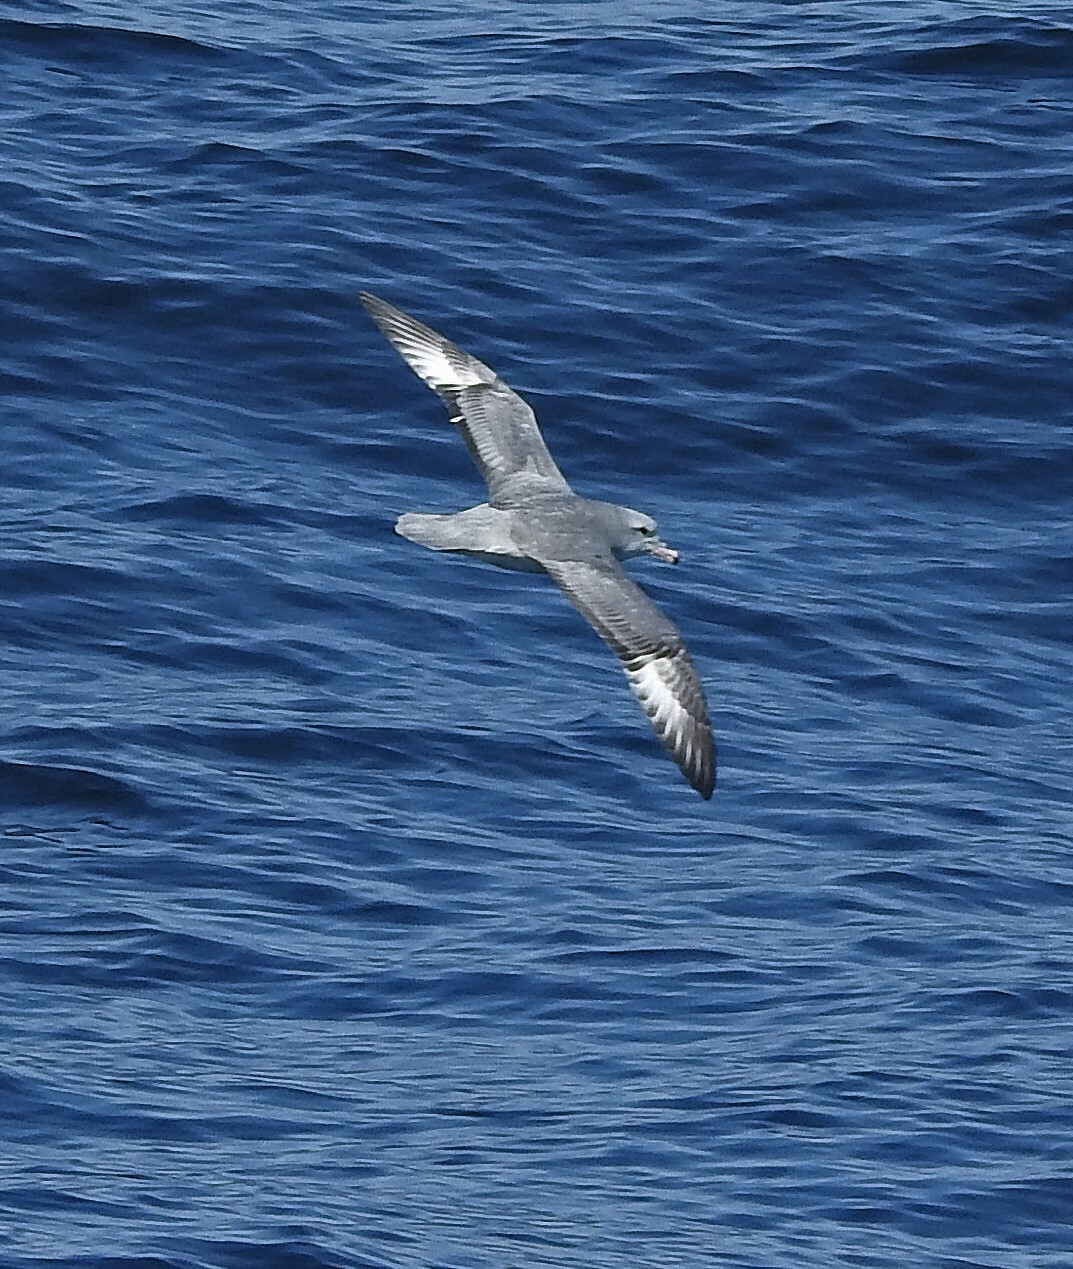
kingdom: Animalia
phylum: Chordata
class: Aves
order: Procellariiformes
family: Procellariidae
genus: Fulmarus
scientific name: Fulmarus glacialoides
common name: Southern fulmar
